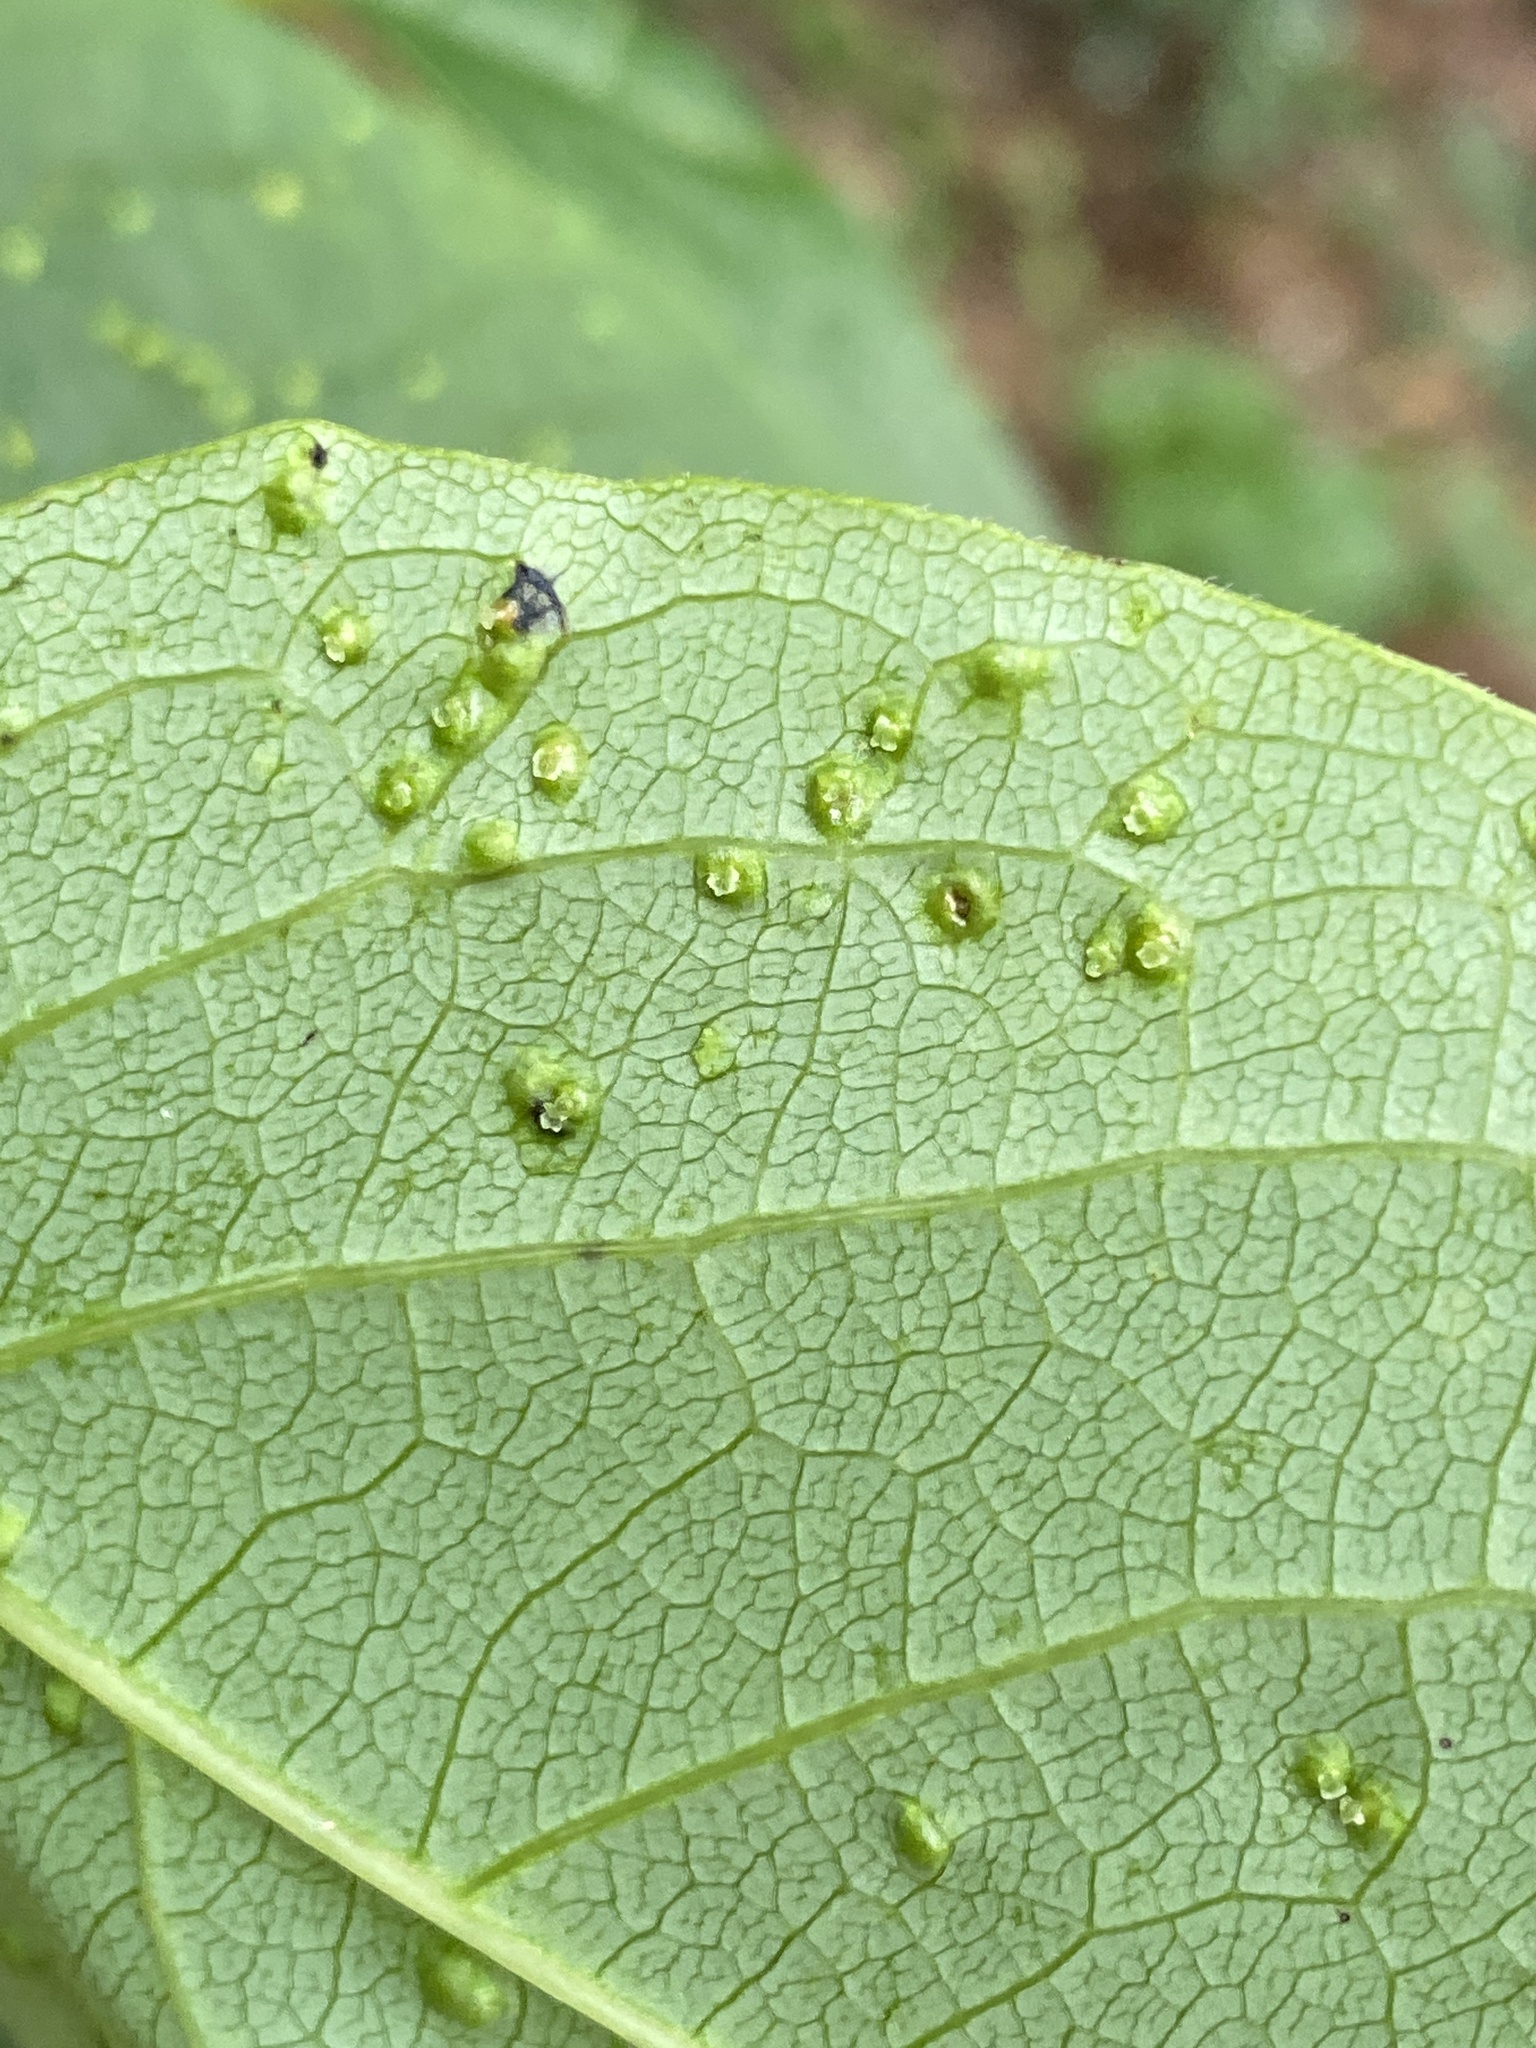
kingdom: Animalia
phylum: Arthropoda
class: Arachnida
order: Trombidiformes
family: Eriophyidae
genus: Aceria
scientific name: Aceria
